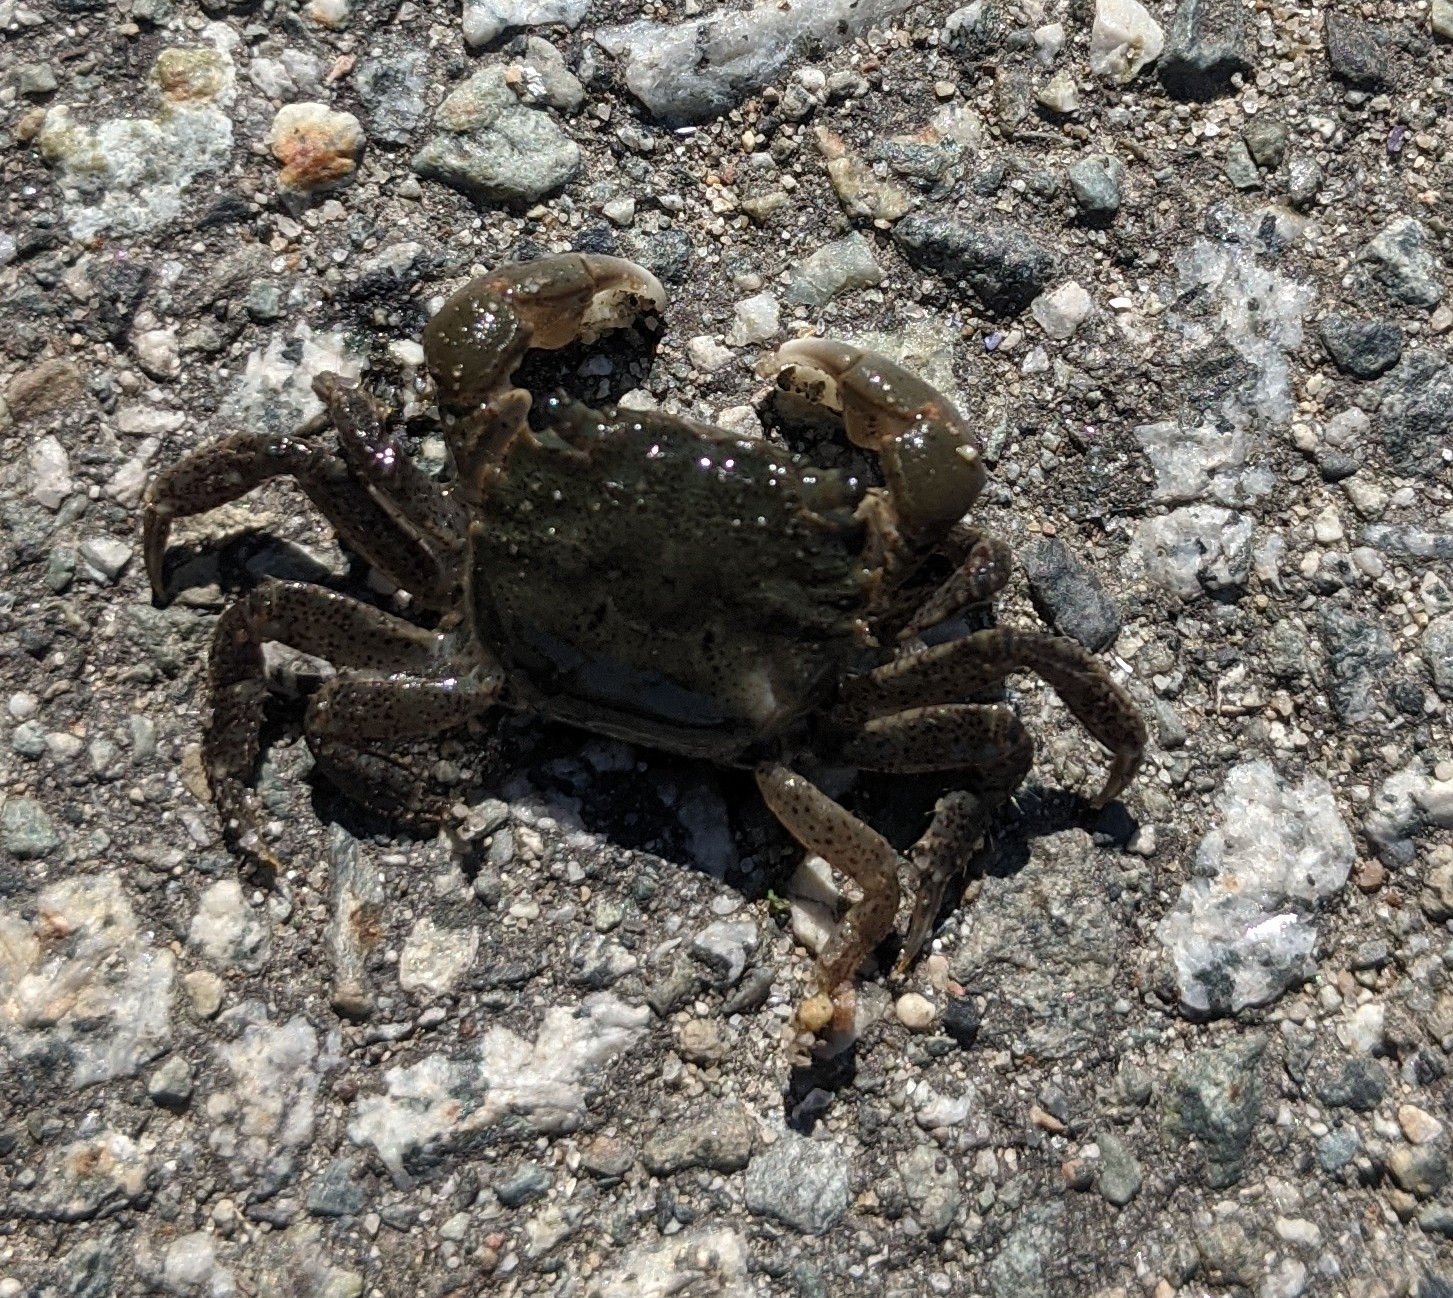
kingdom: Animalia
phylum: Arthropoda
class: Malacostraca
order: Decapoda
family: Varunidae
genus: Hemigrapsus
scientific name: Hemigrapsus oregonensis
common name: Yellow shore crab
